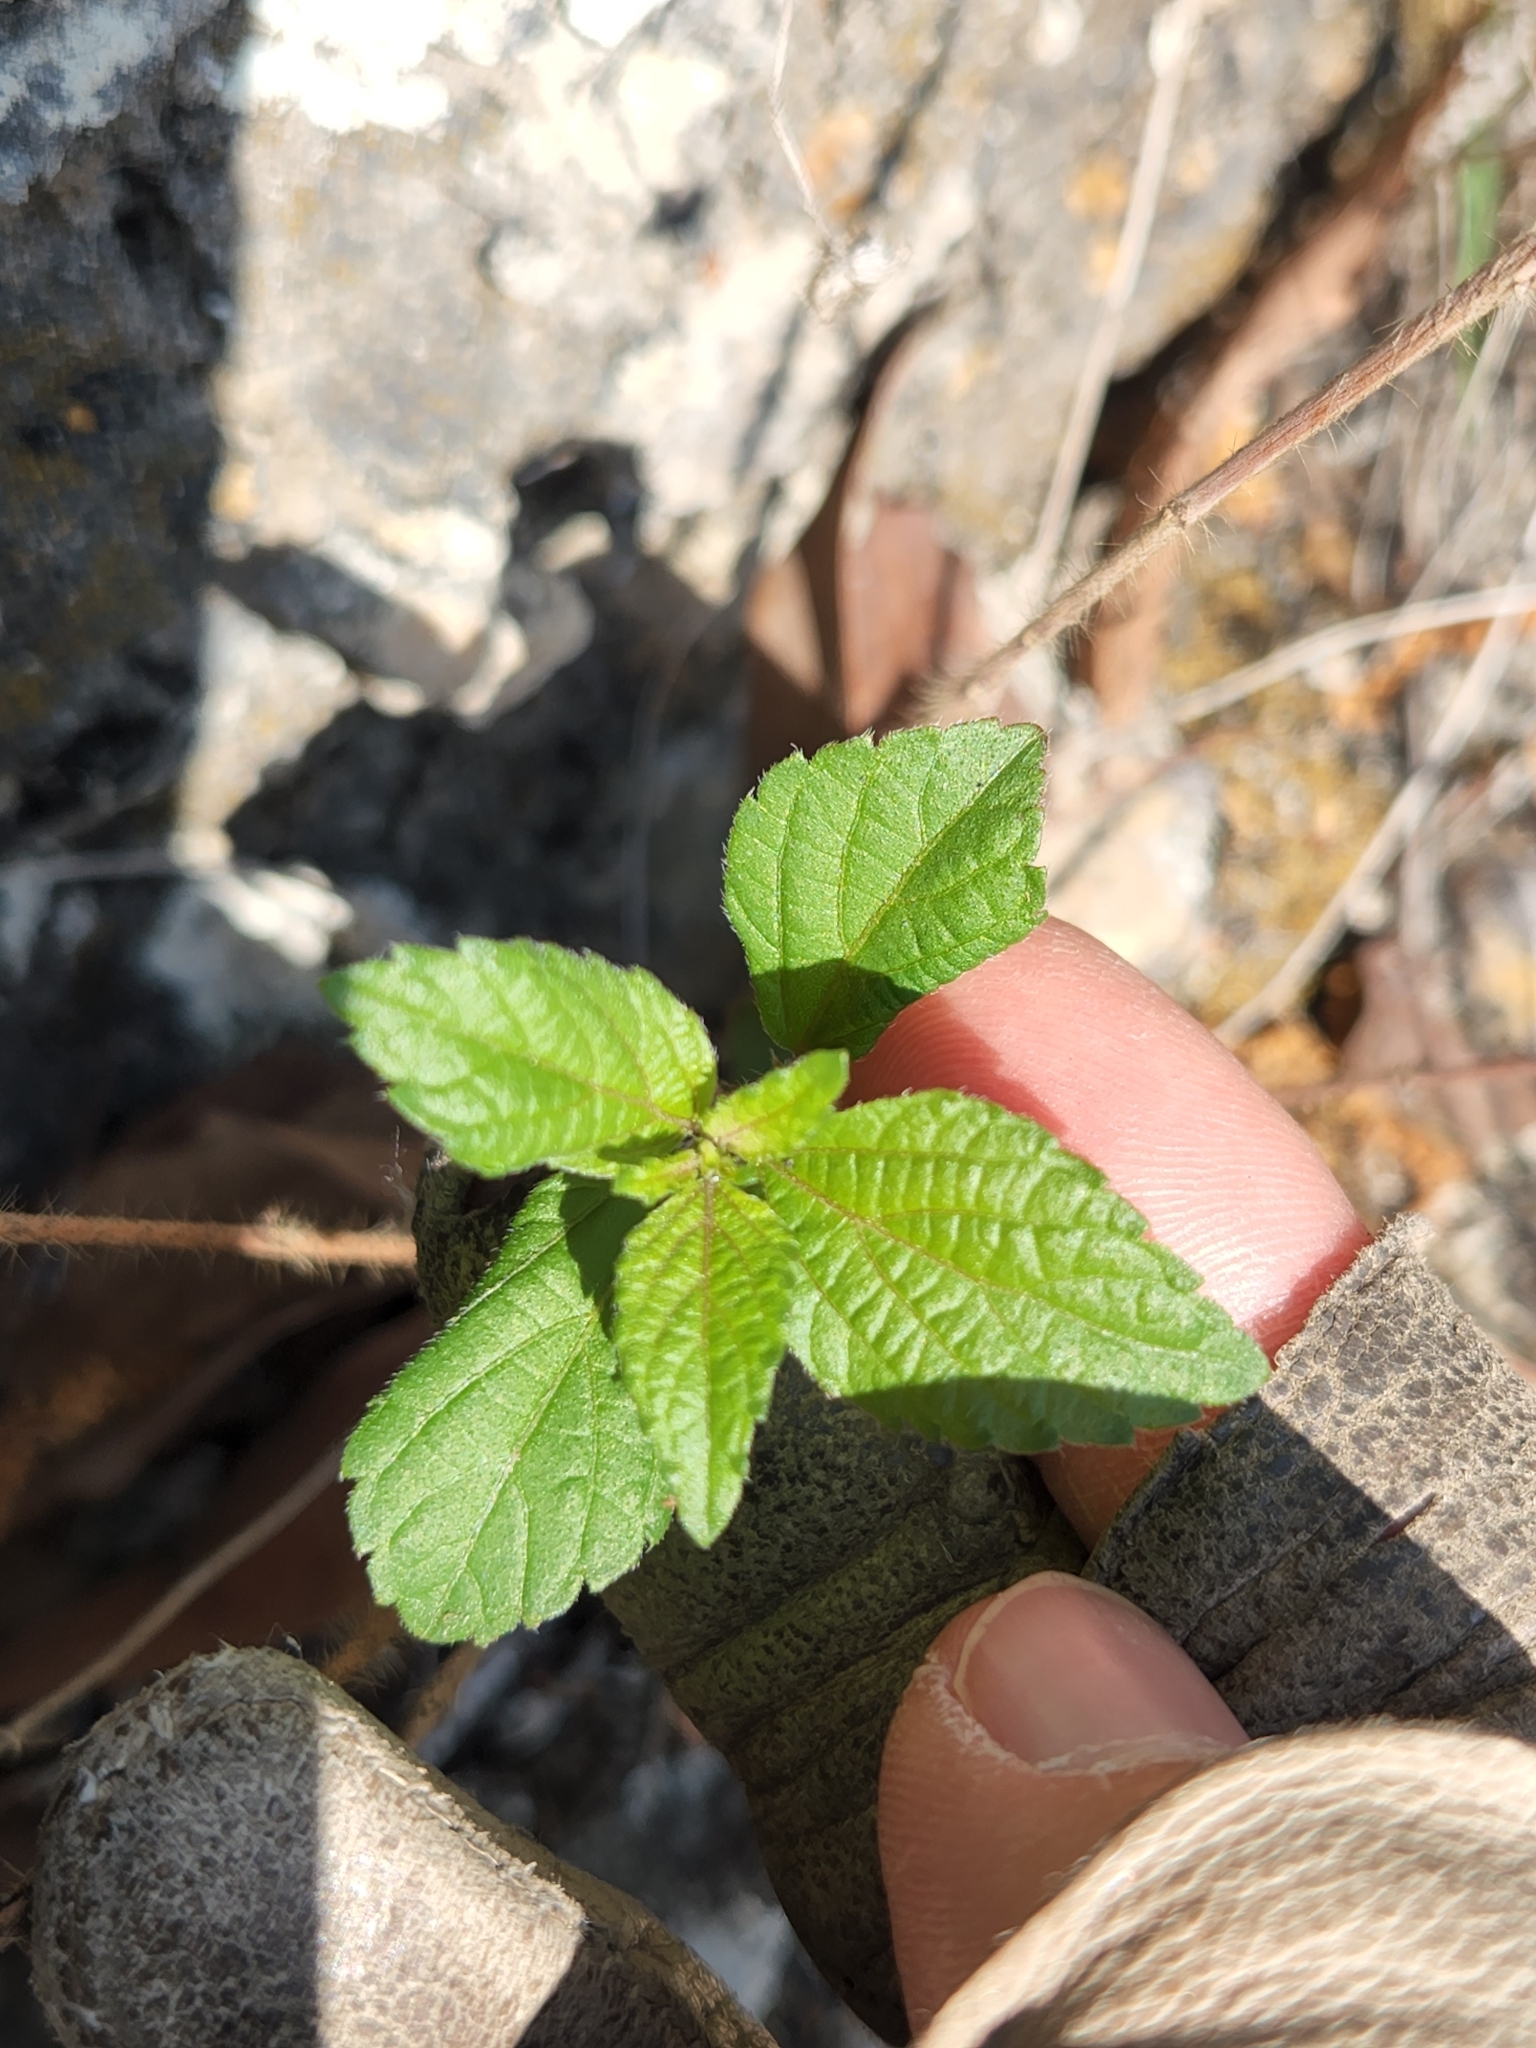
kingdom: Plantae
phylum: Tracheophyta
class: Magnoliopsida
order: Malpighiales
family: Euphorbiaceae
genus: Acalypha
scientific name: Acalypha phleoides
